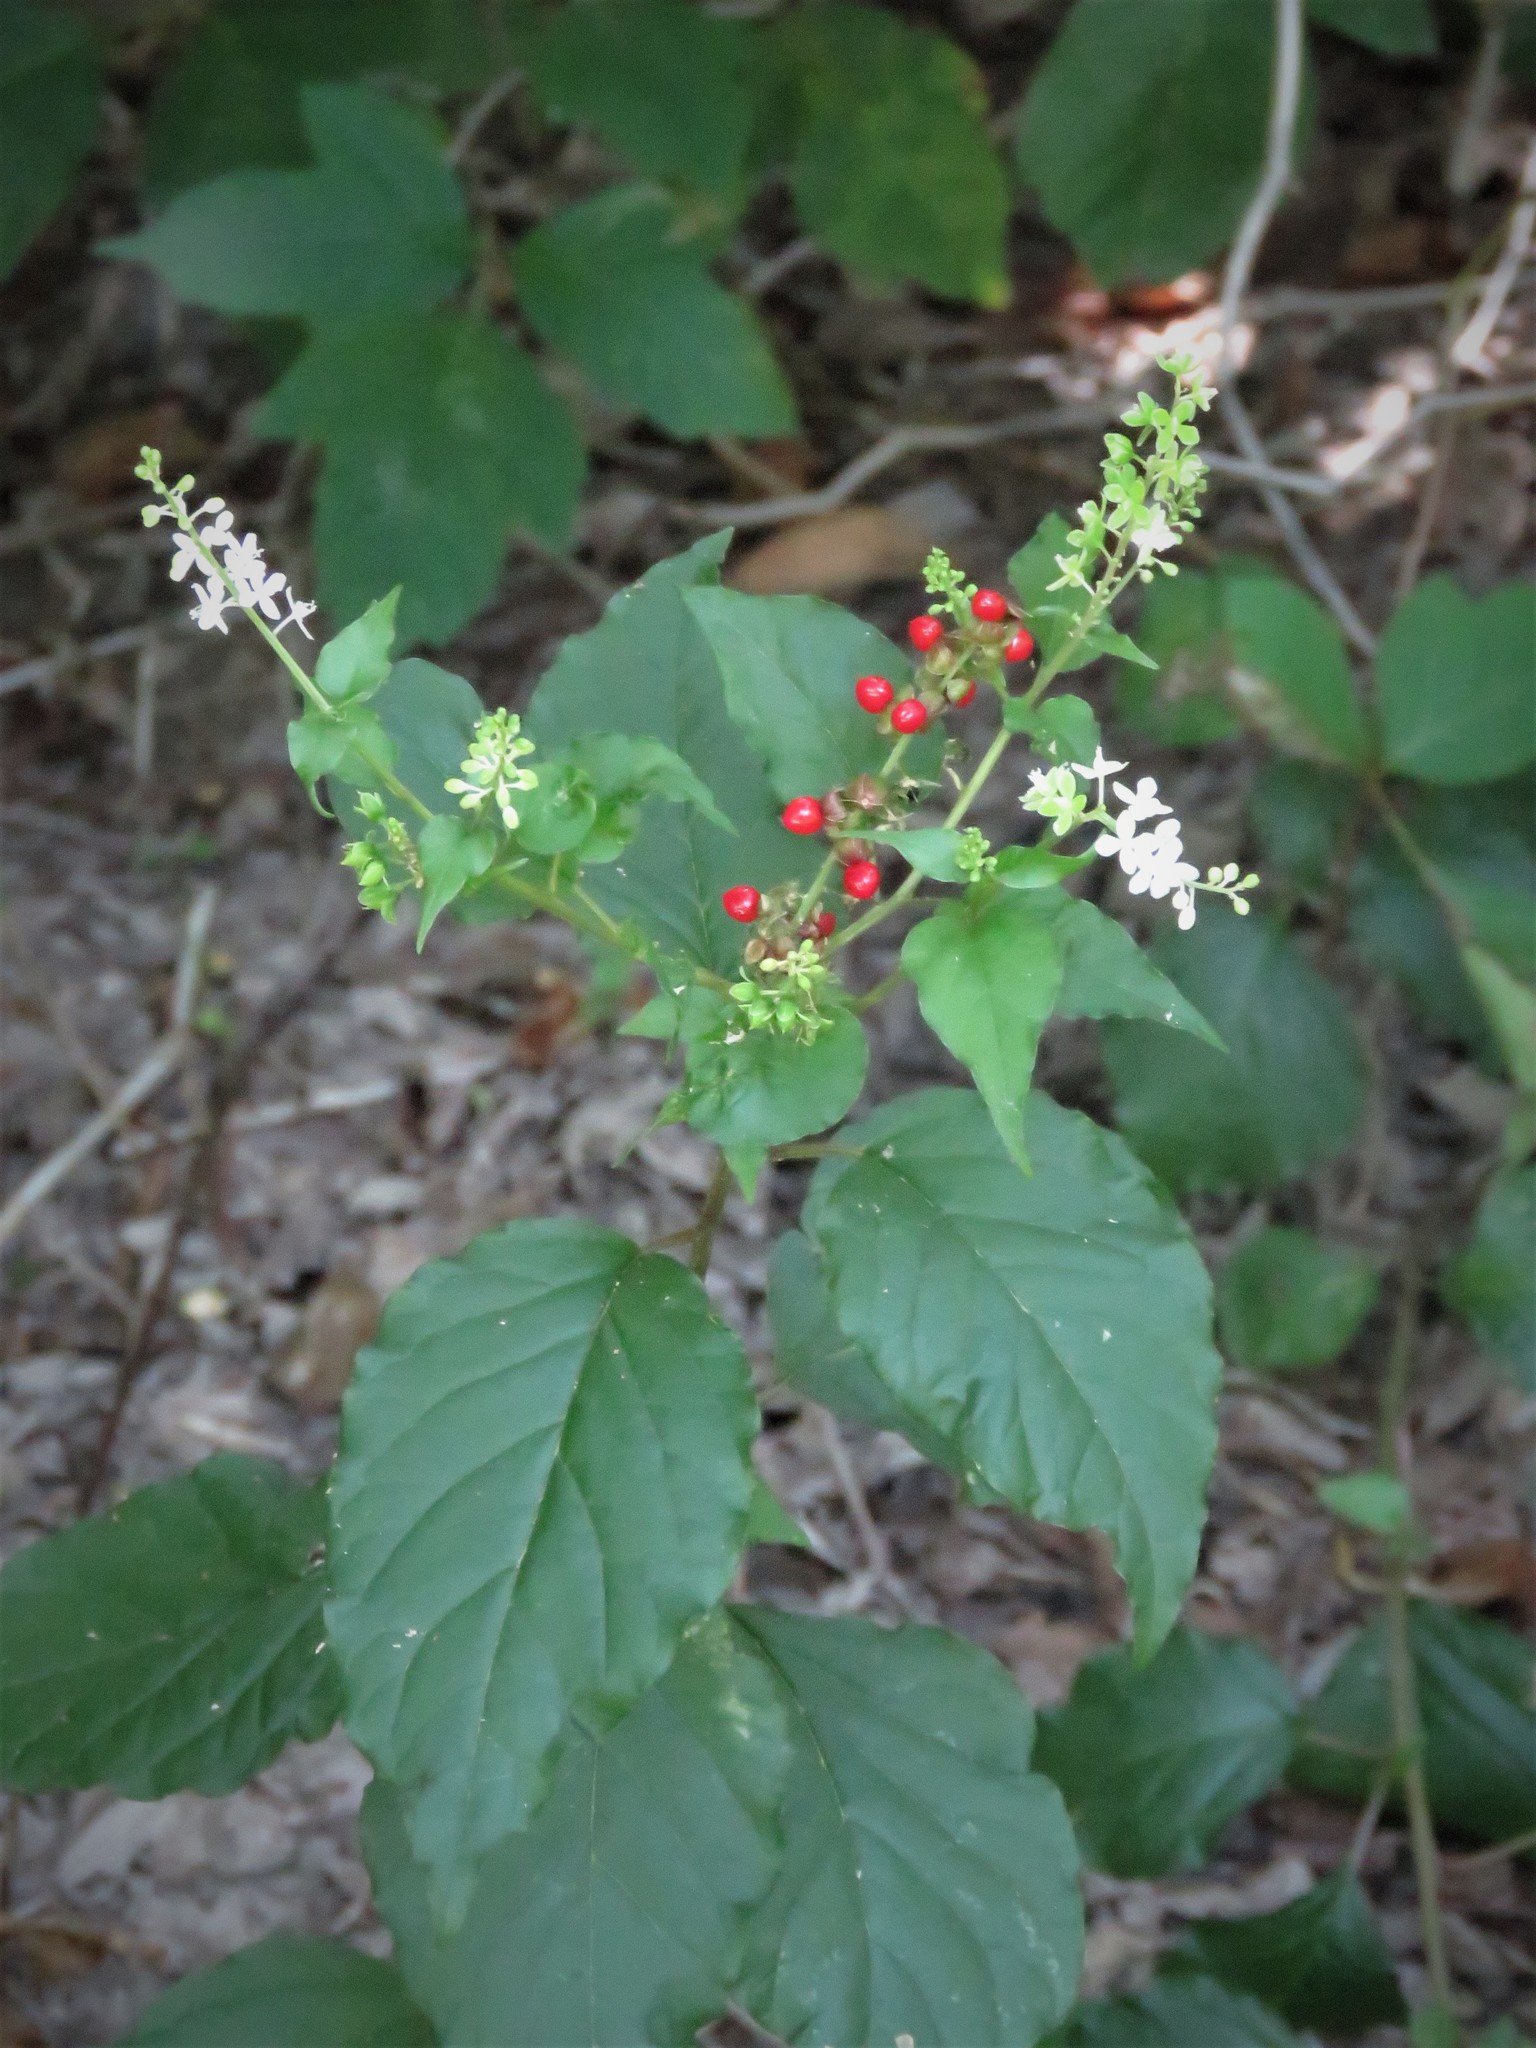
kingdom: Plantae
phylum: Tracheophyta
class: Magnoliopsida
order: Caryophyllales
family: Phytolaccaceae
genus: Rivina
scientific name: Rivina humilis
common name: Rougeplant
